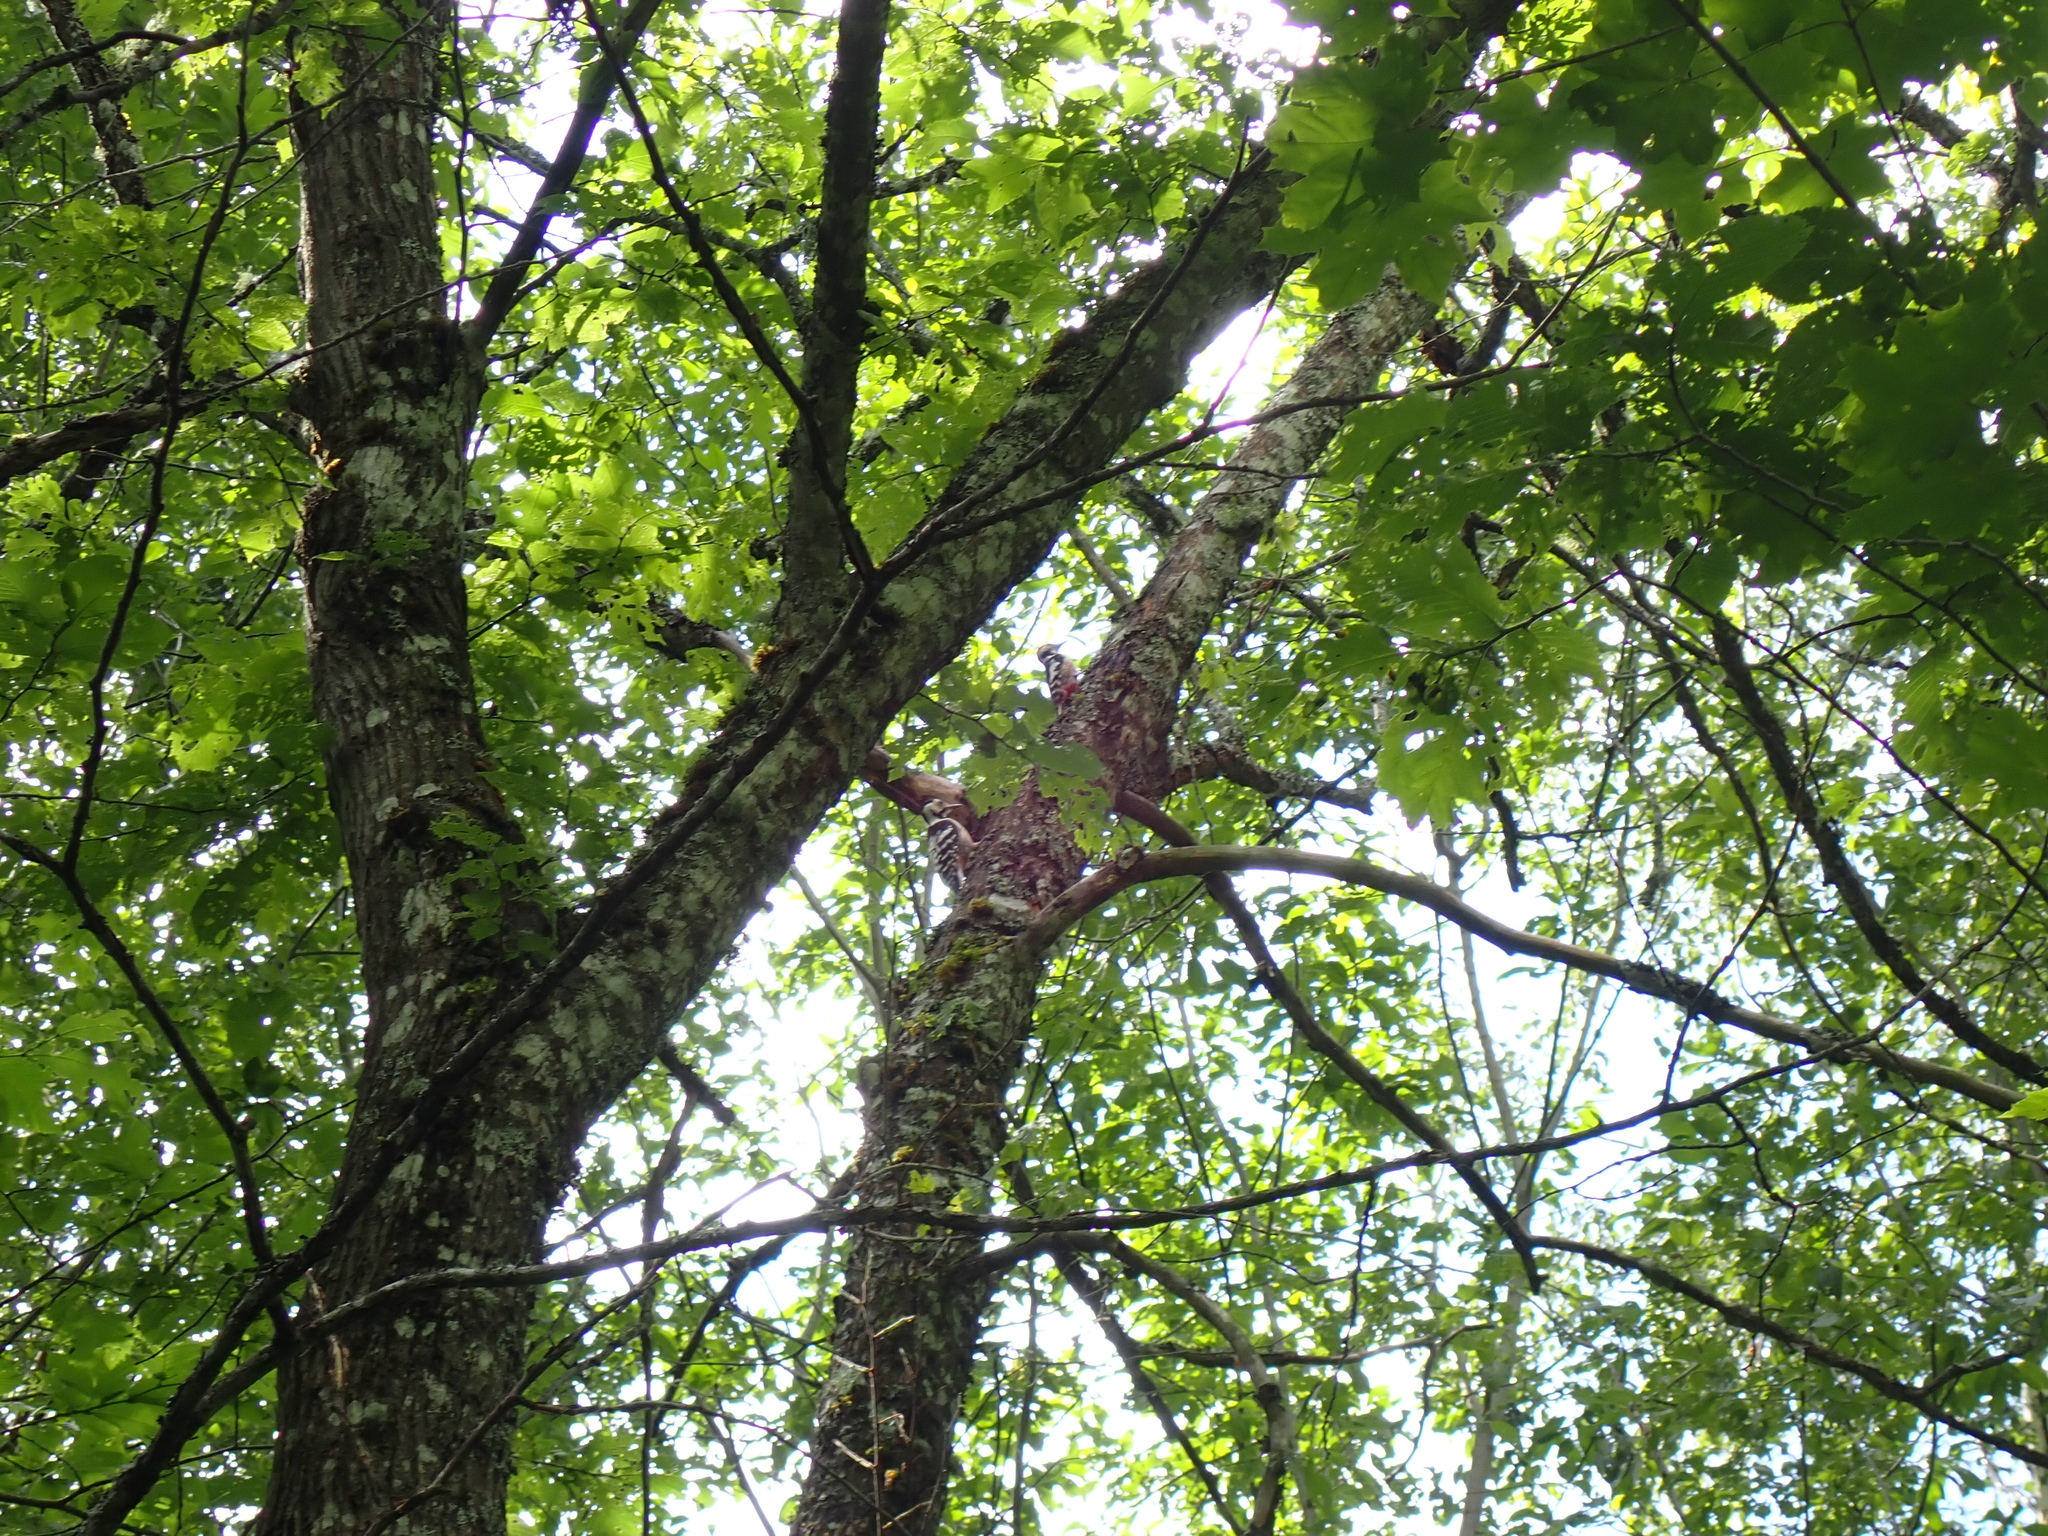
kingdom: Animalia
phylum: Chordata
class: Aves
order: Piciformes
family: Picidae
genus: Dendrocopos
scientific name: Dendrocopos leucotos
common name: White-backed woodpecker
